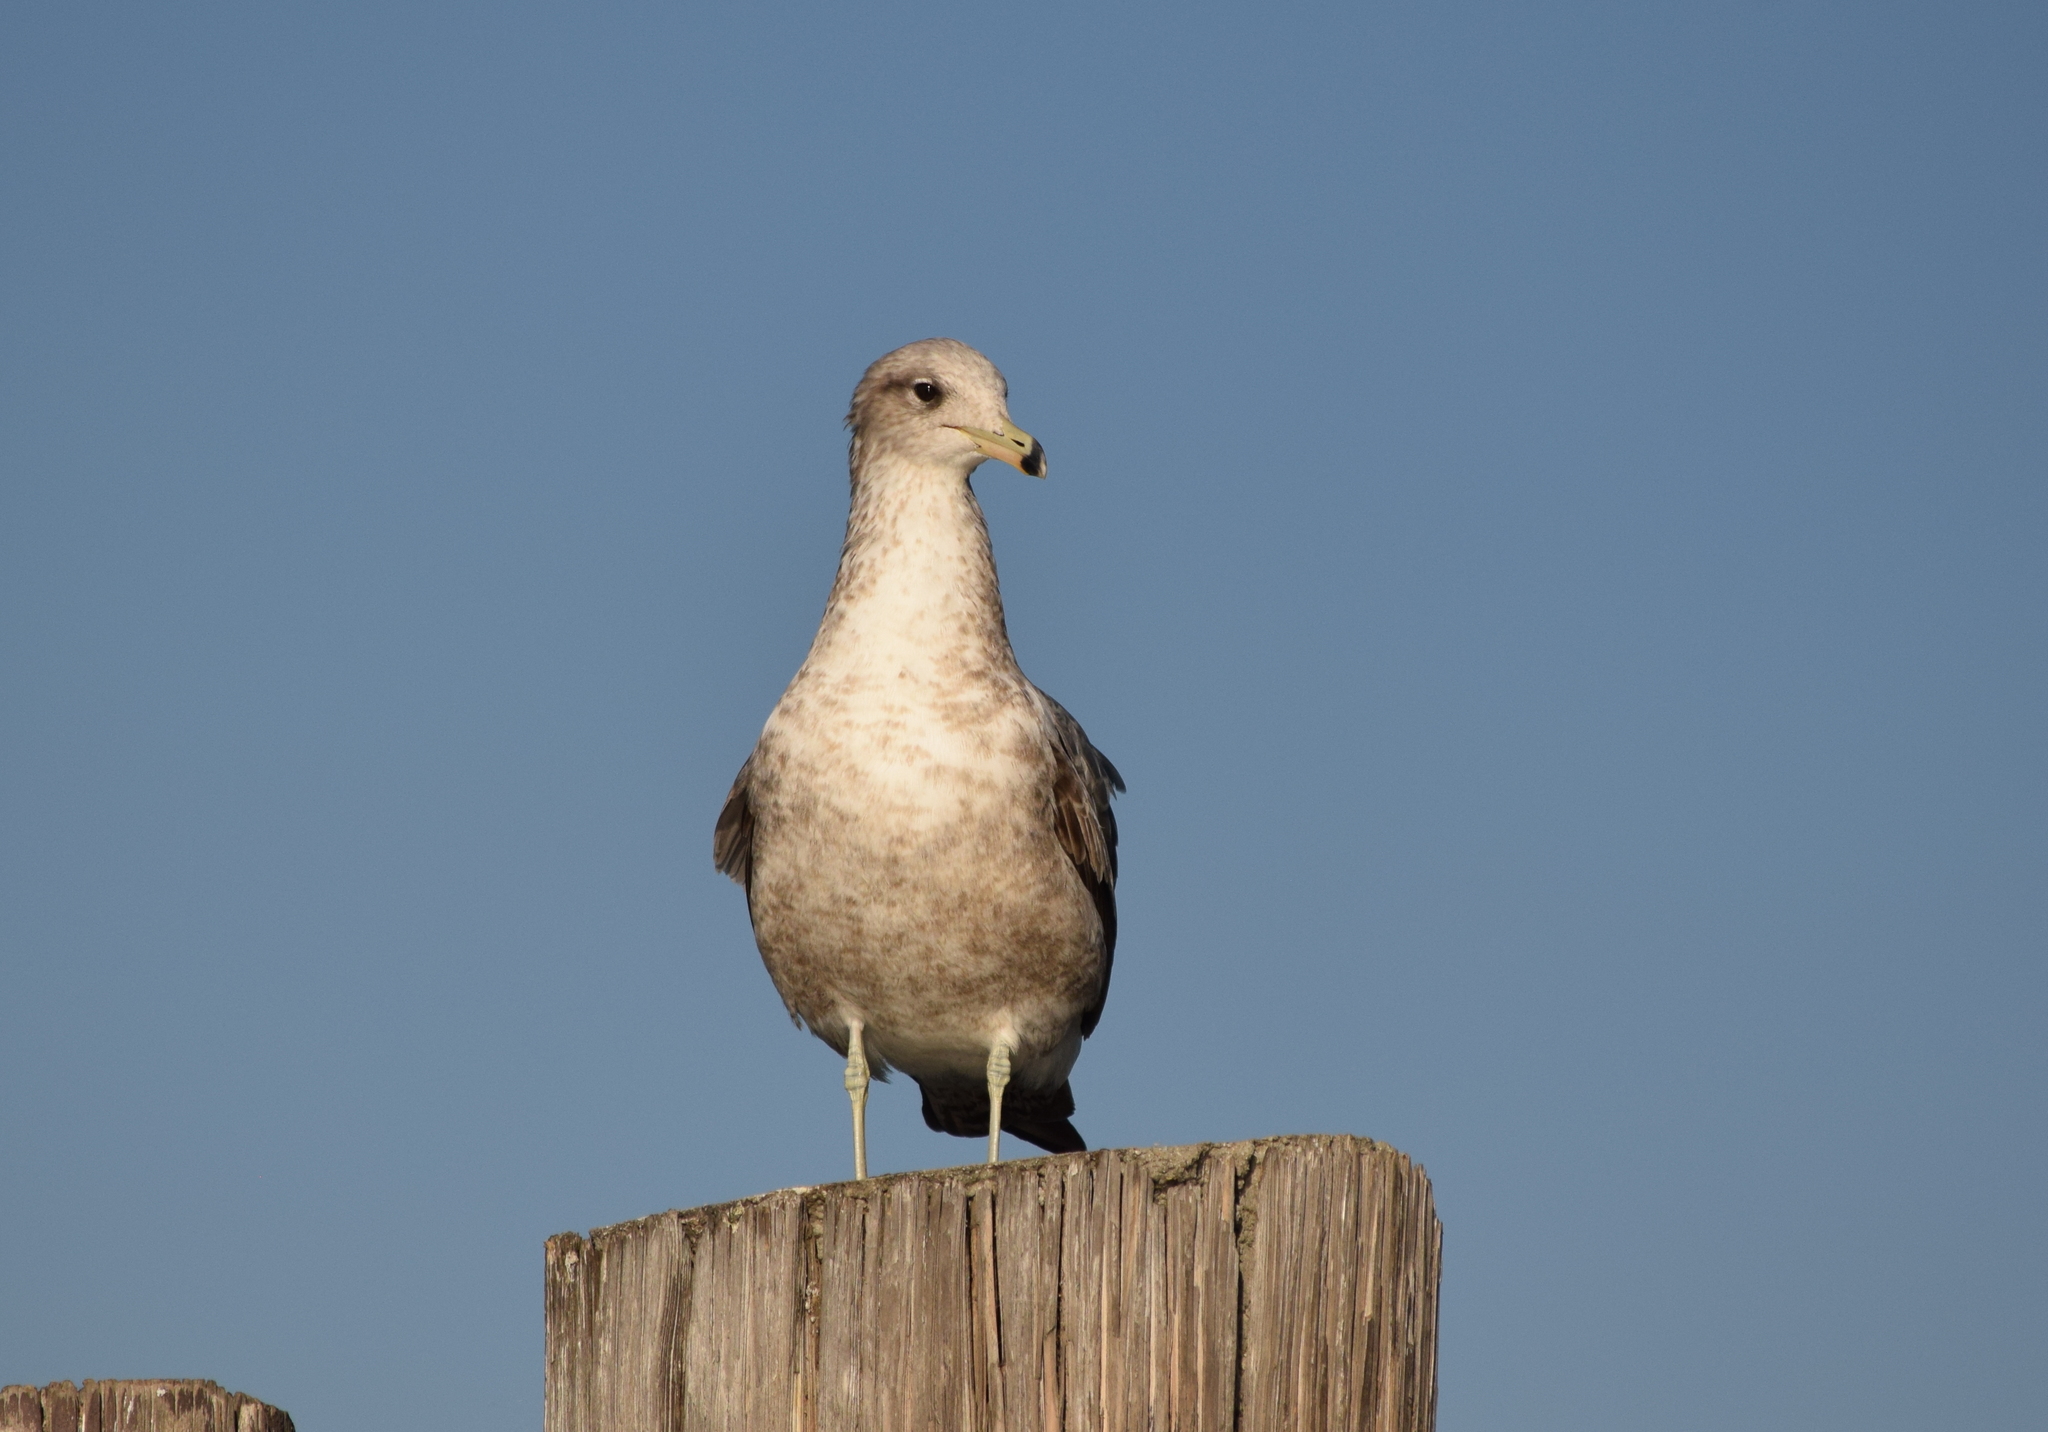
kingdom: Animalia
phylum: Chordata
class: Aves
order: Charadriiformes
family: Laridae
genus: Larus
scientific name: Larus californicus
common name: California gull
